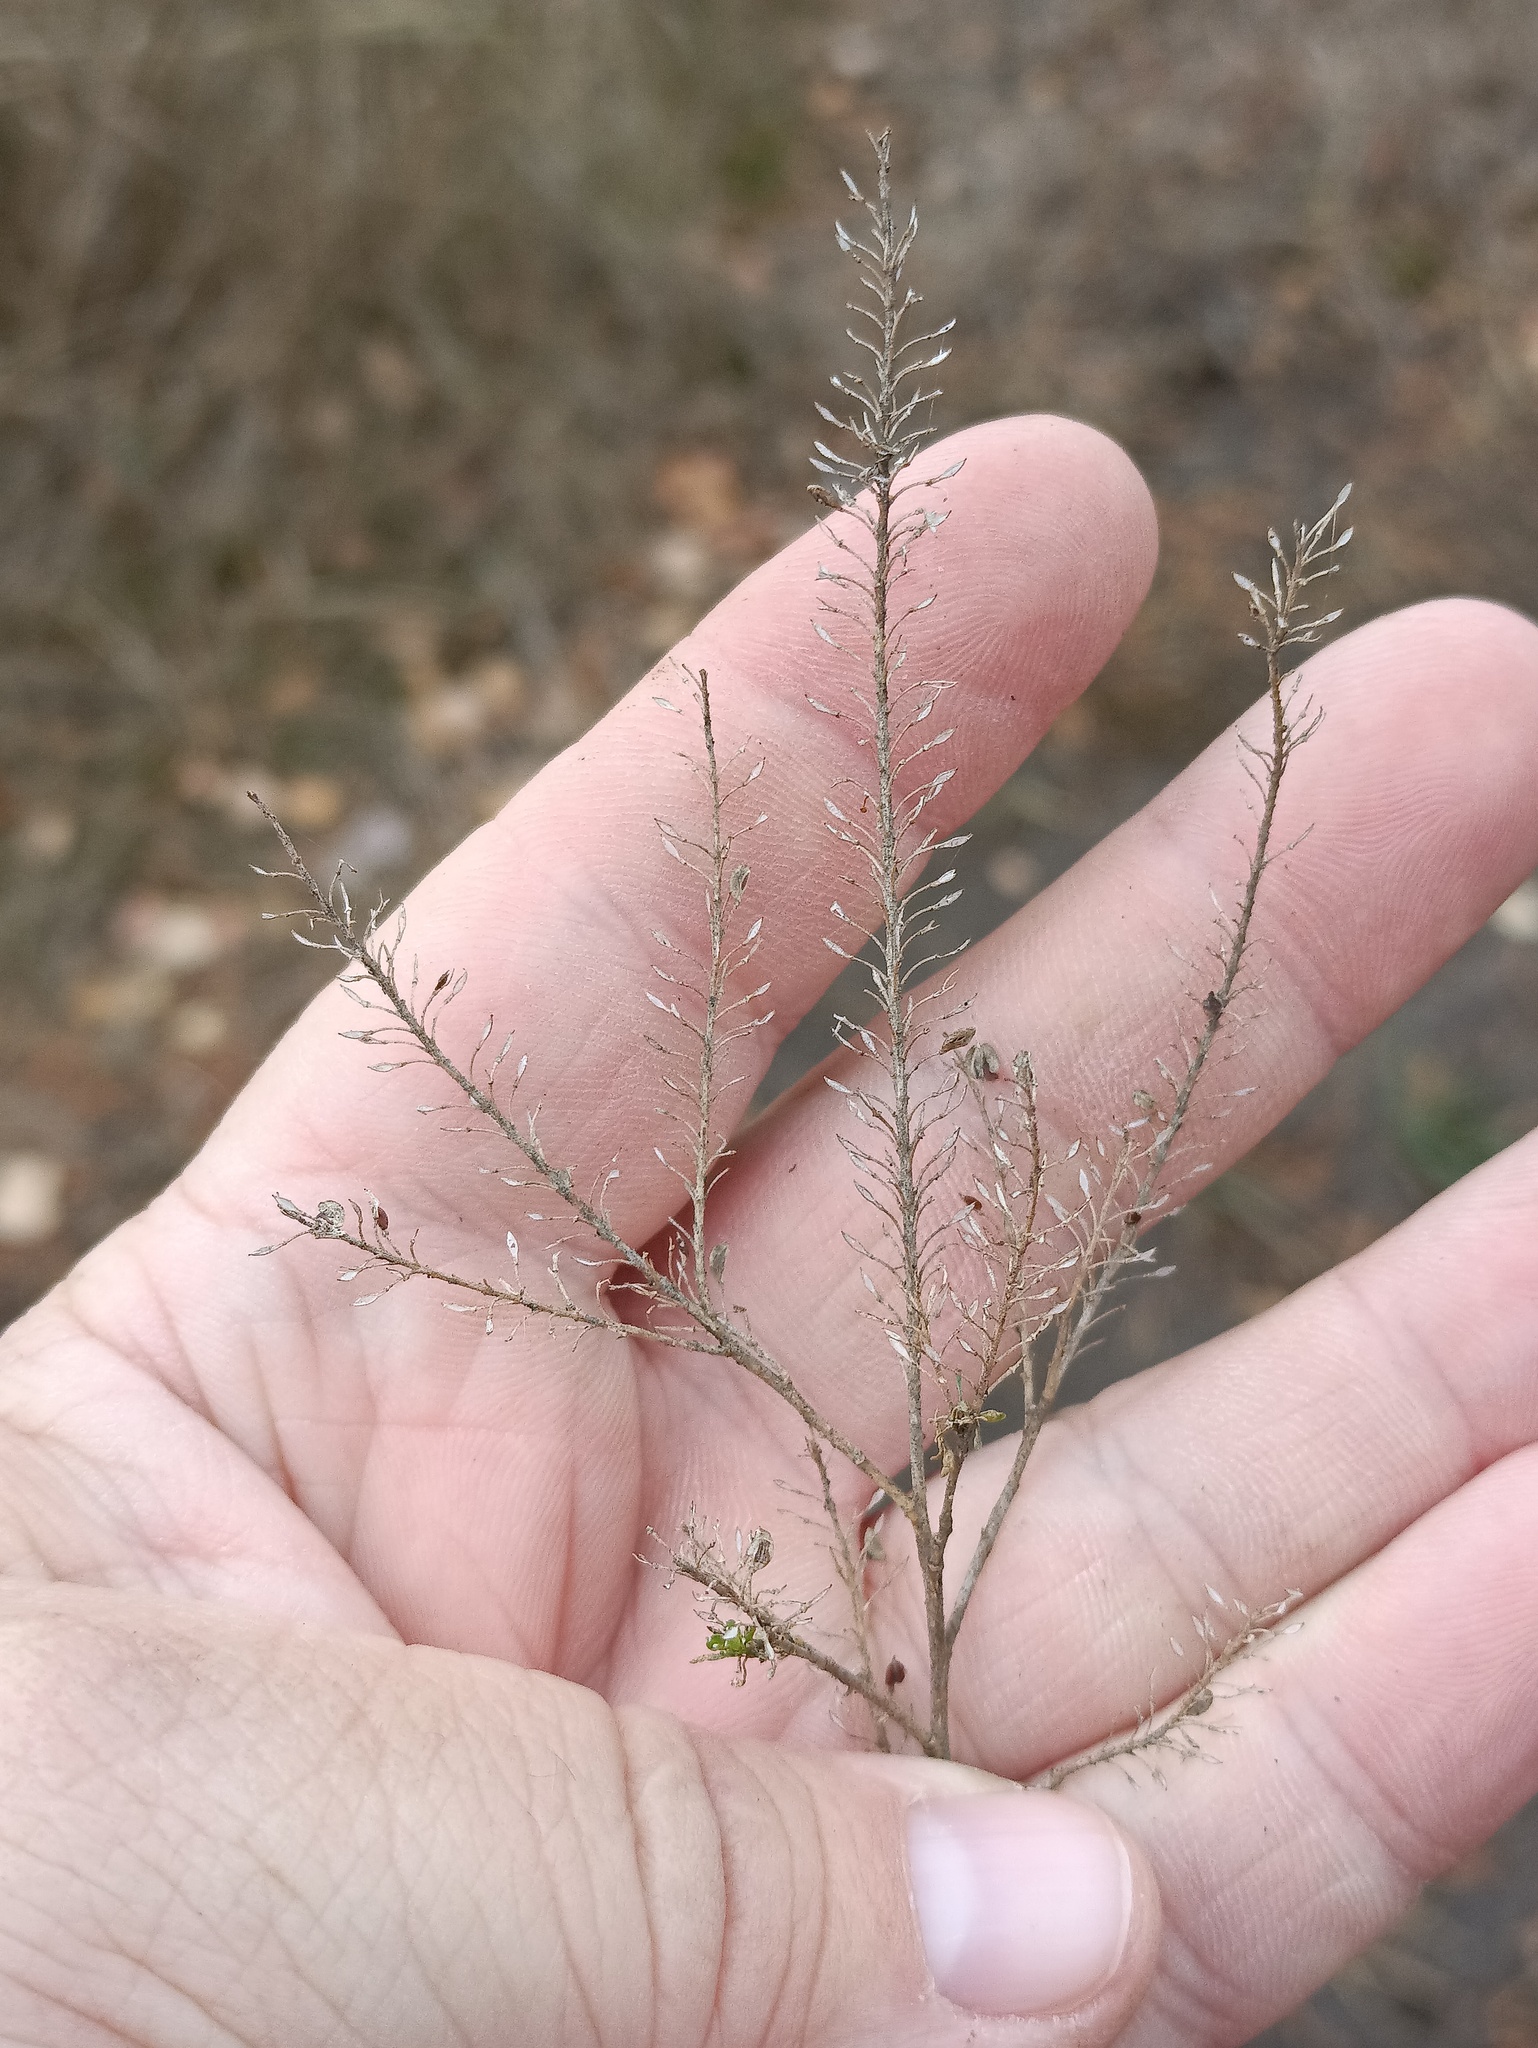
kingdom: Plantae
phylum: Tracheophyta
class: Magnoliopsida
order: Brassicales
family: Brassicaceae
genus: Lepidium
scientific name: Lepidium densiflorum
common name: Miner's pepperwort
